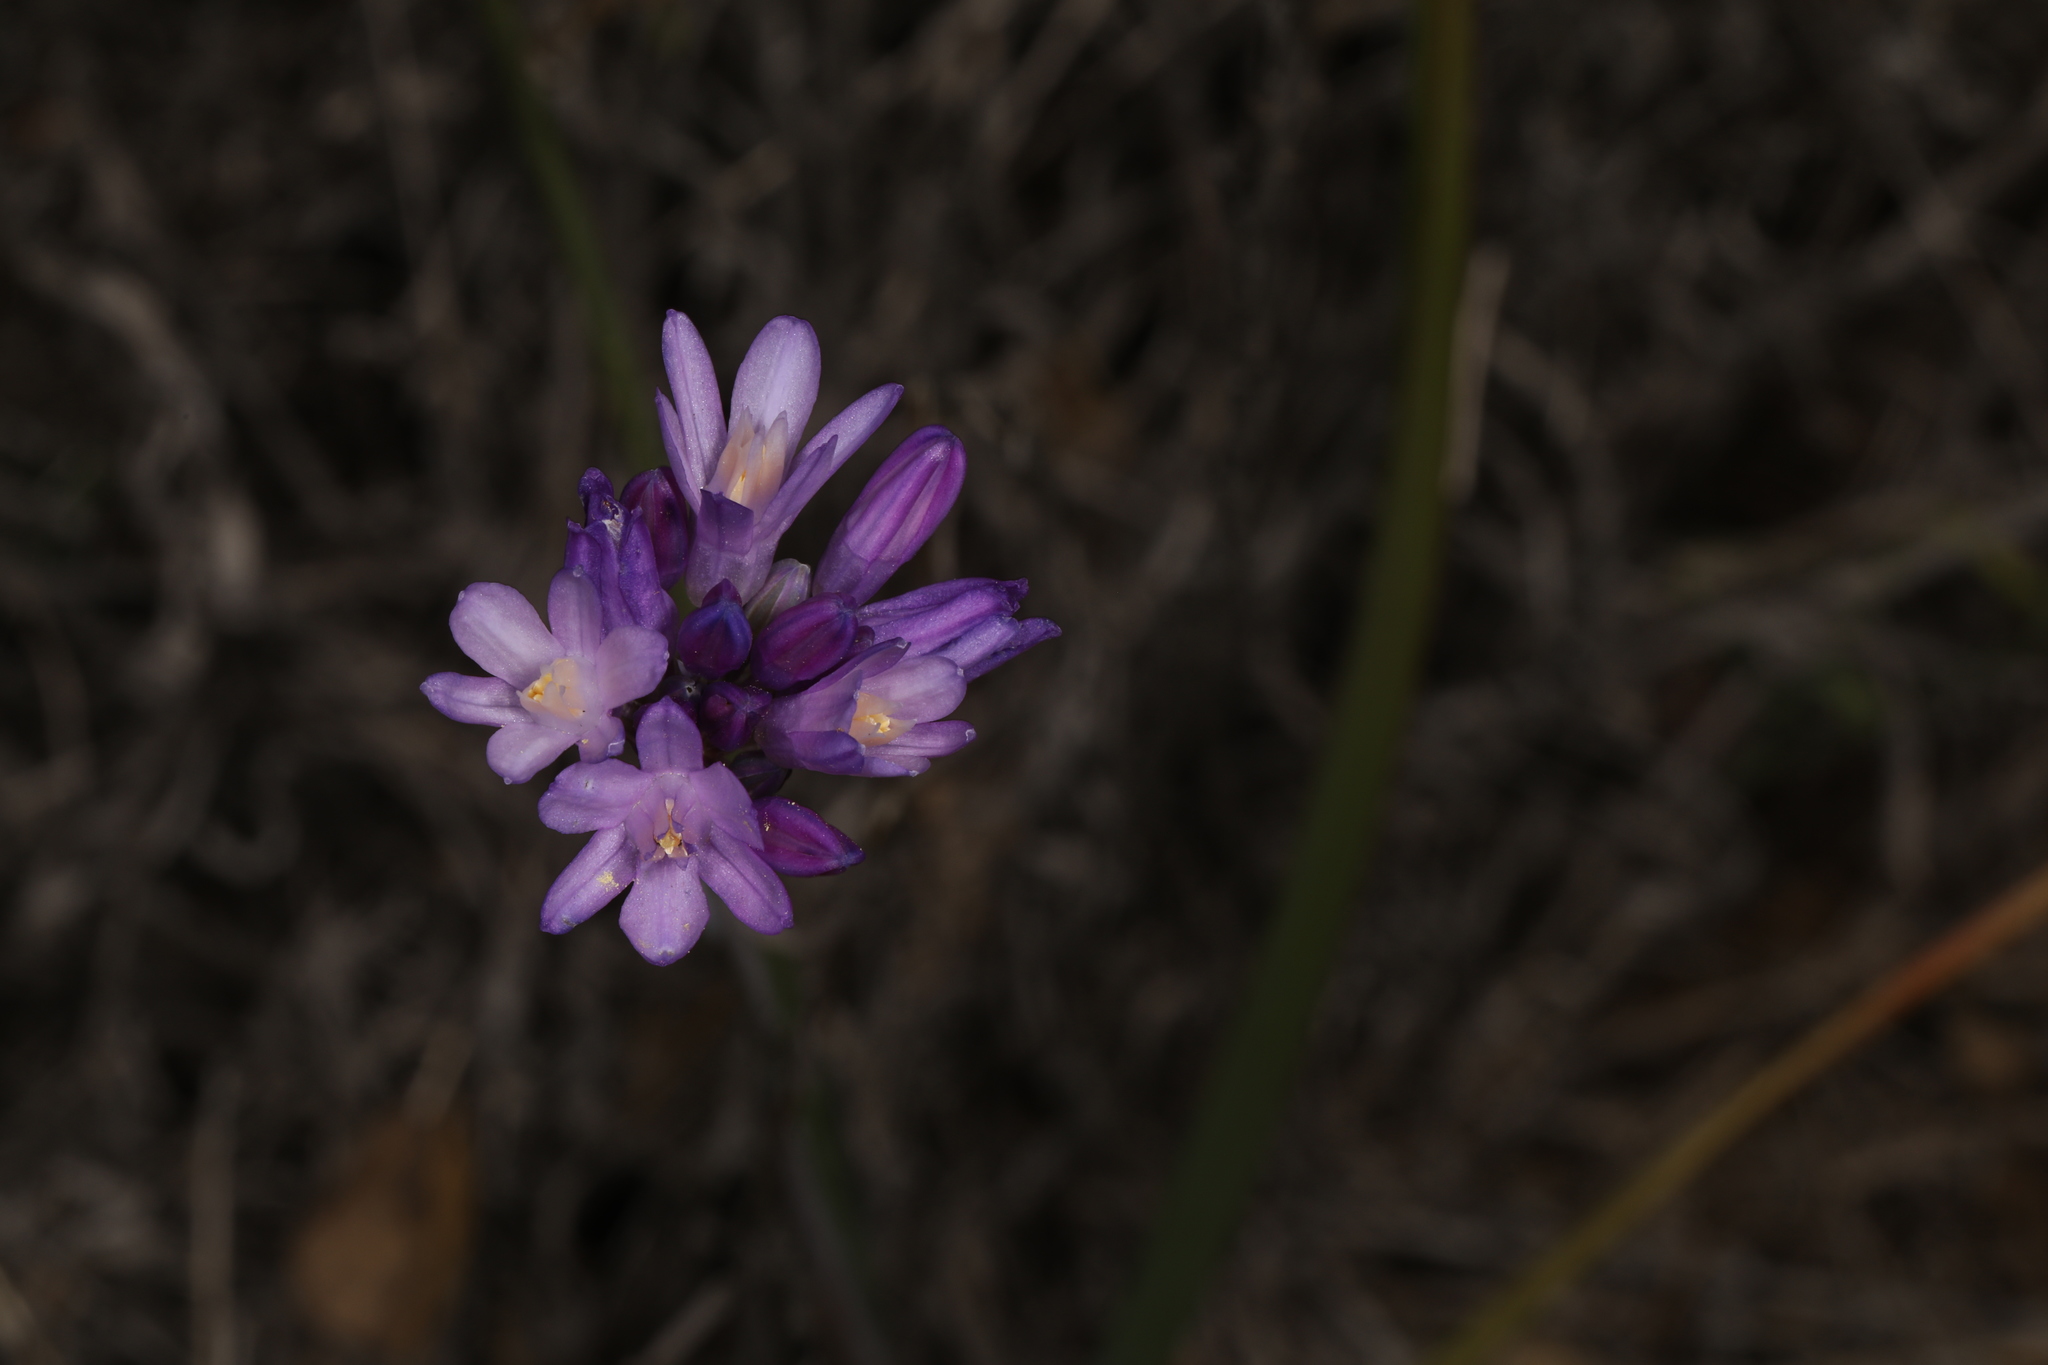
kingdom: Plantae
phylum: Tracheophyta
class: Liliopsida
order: Asparagales
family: Asparagaceae
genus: Dipterostemon
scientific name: Dipterostemon capitatus
